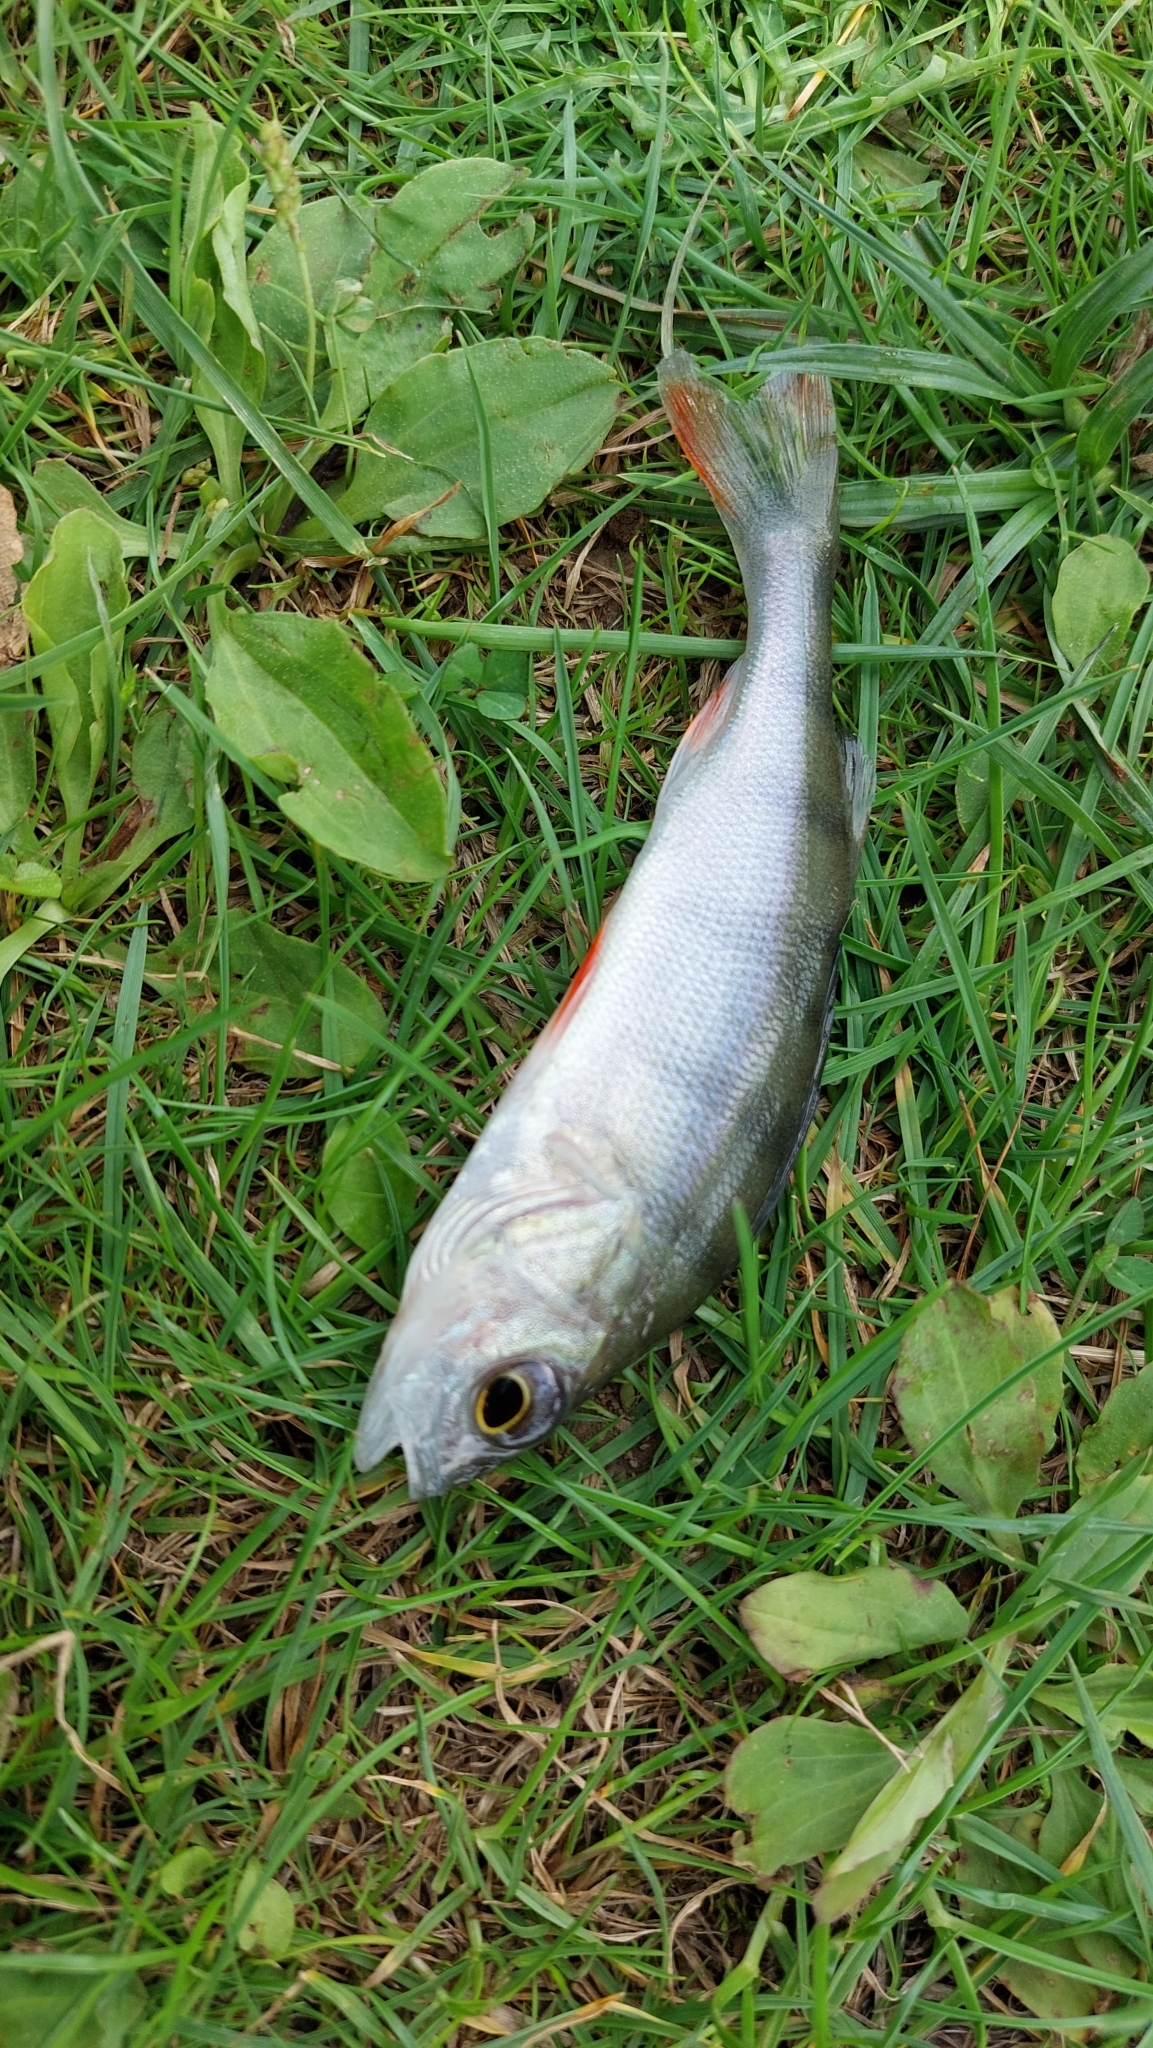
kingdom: Animalia
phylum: Chordata
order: Perciformes
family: Percidae
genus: Perca
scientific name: Perca fluviatilis
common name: Perch
